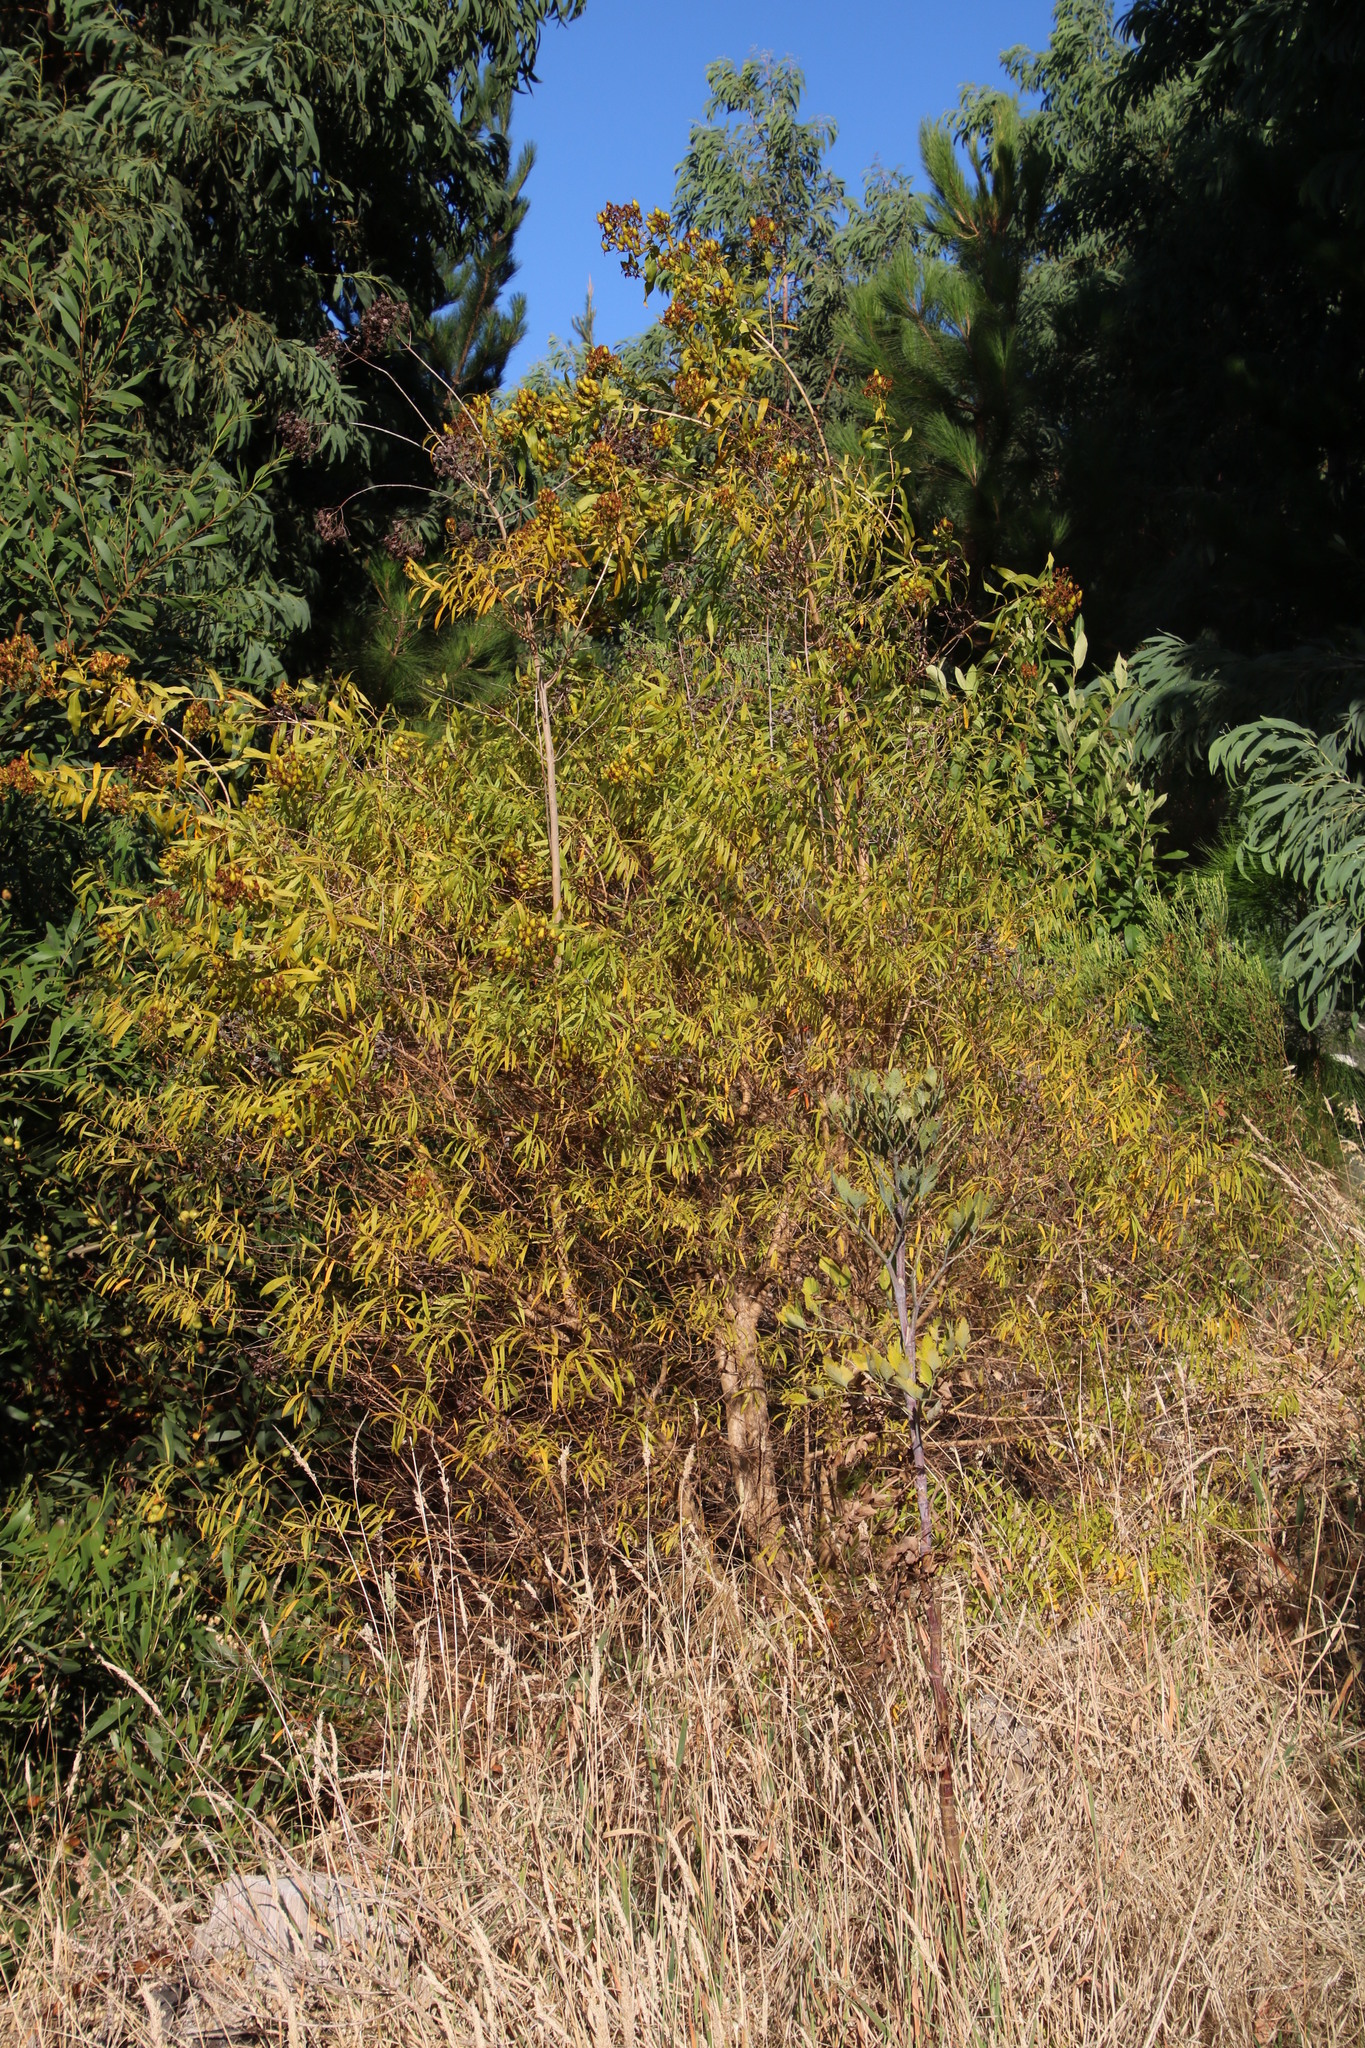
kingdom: Plantae
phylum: Tracheophyta
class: Magnoliopsida
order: Malpighiales
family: Hypericaceae
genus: Hypericum
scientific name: Hypericum canariense
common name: Canary island st. johnswort
